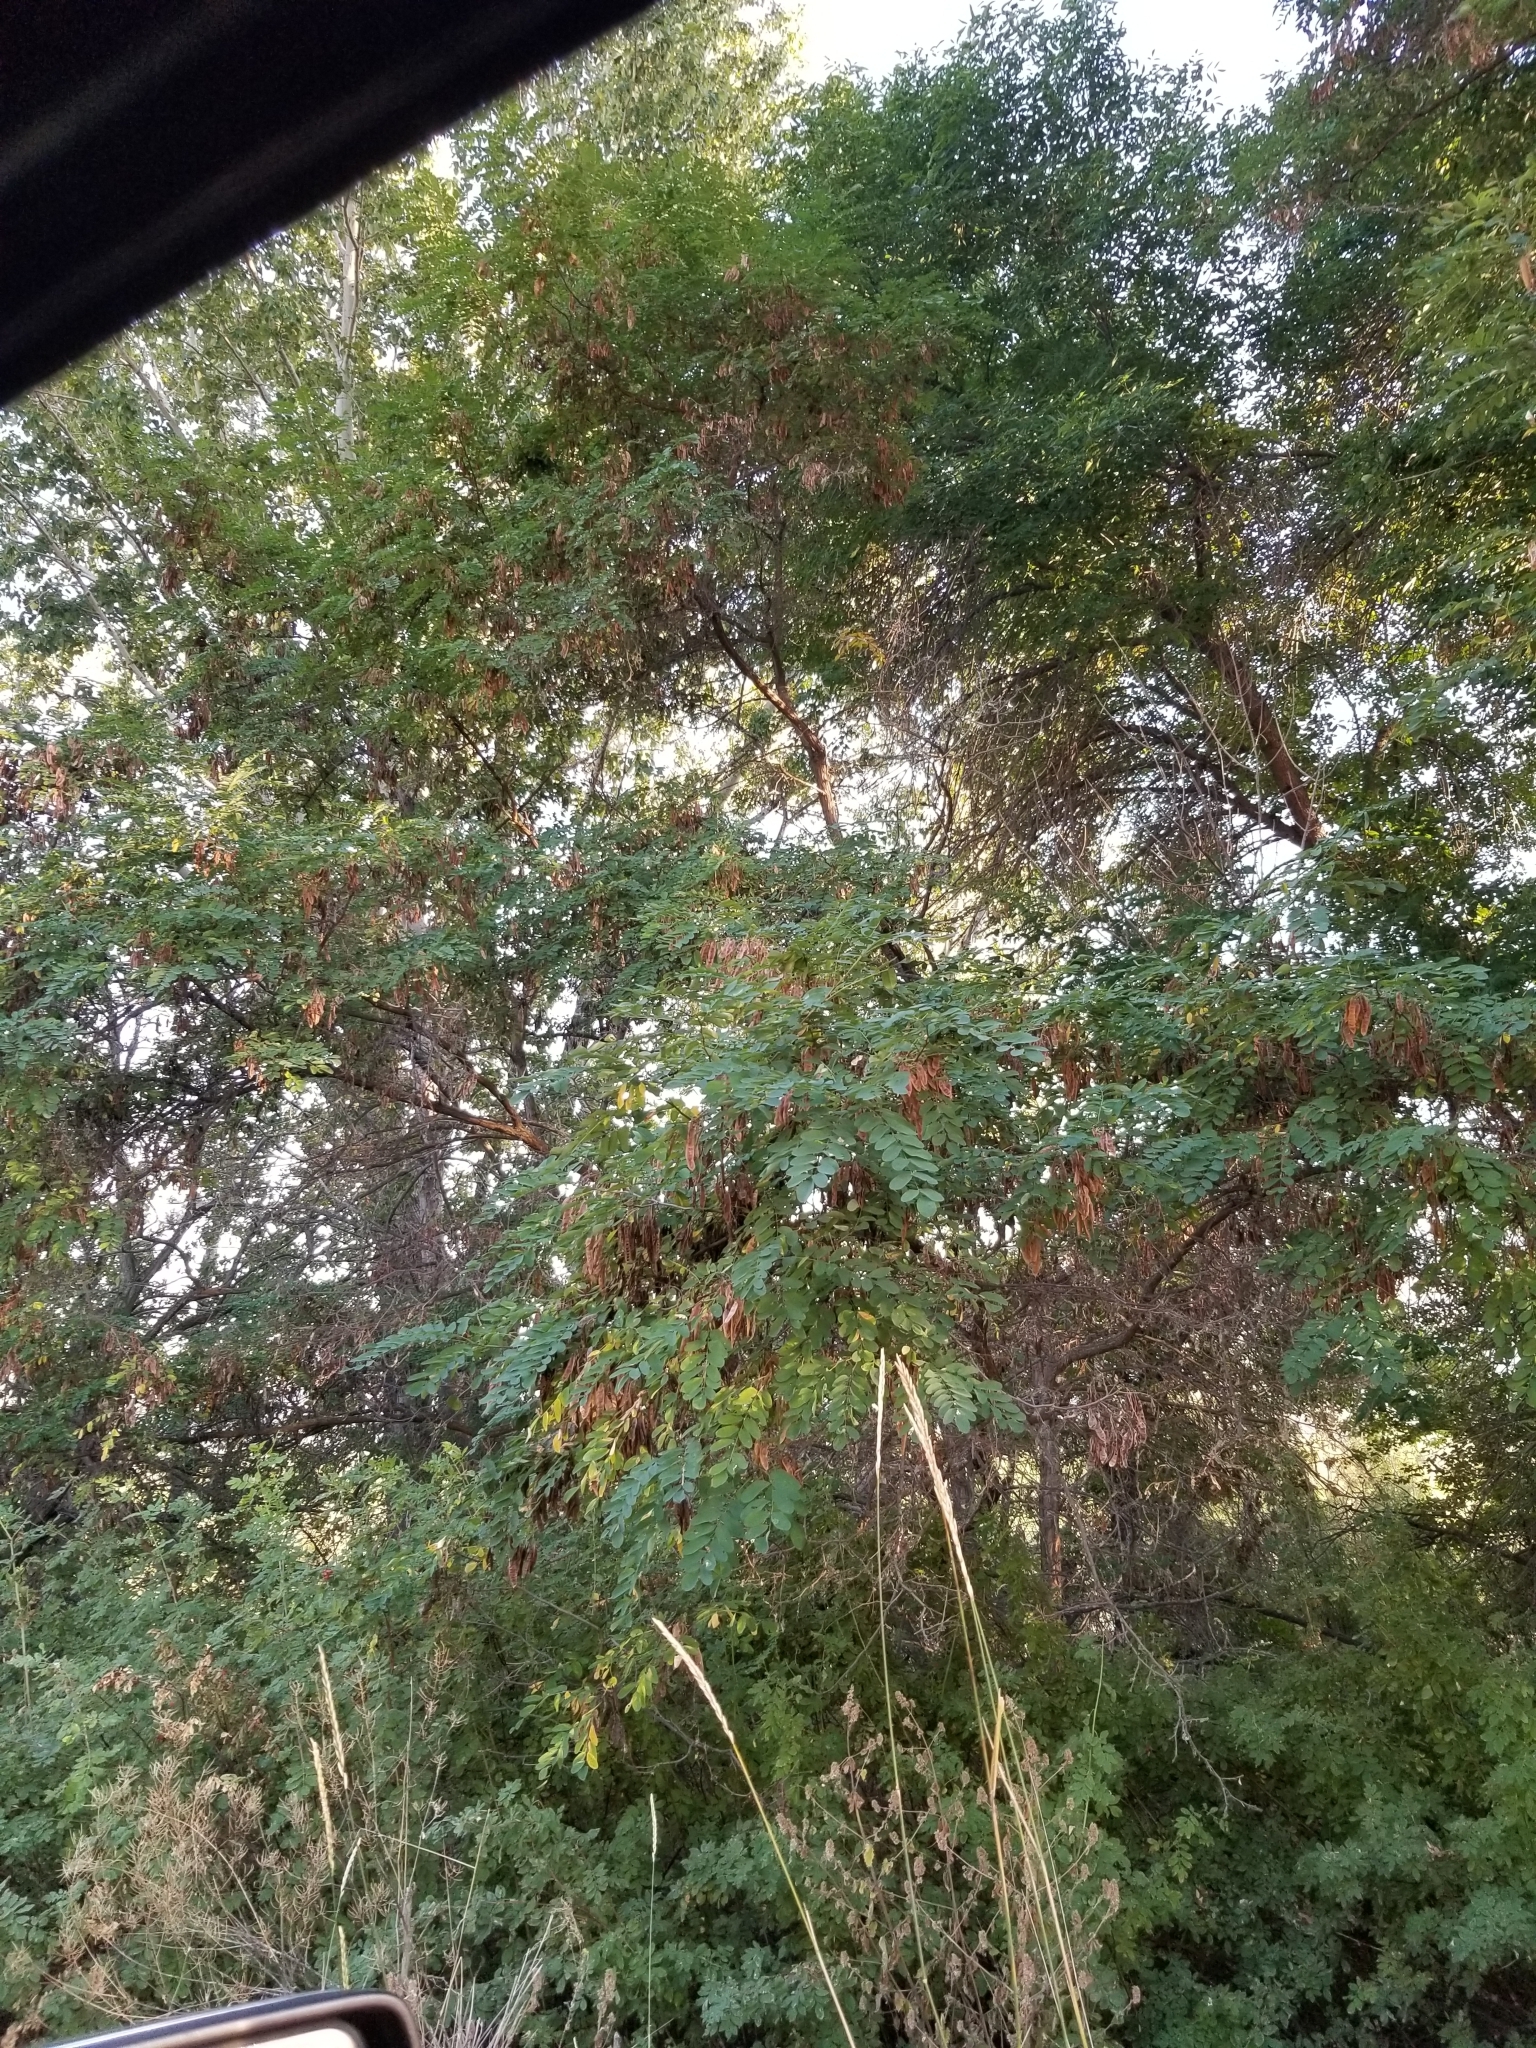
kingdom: Plantae
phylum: Tracheophyta
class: Magnoliopsida
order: Fabales
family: Fabaceae
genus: Robinia
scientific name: Robinia pseudoacacia
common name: Black locust
